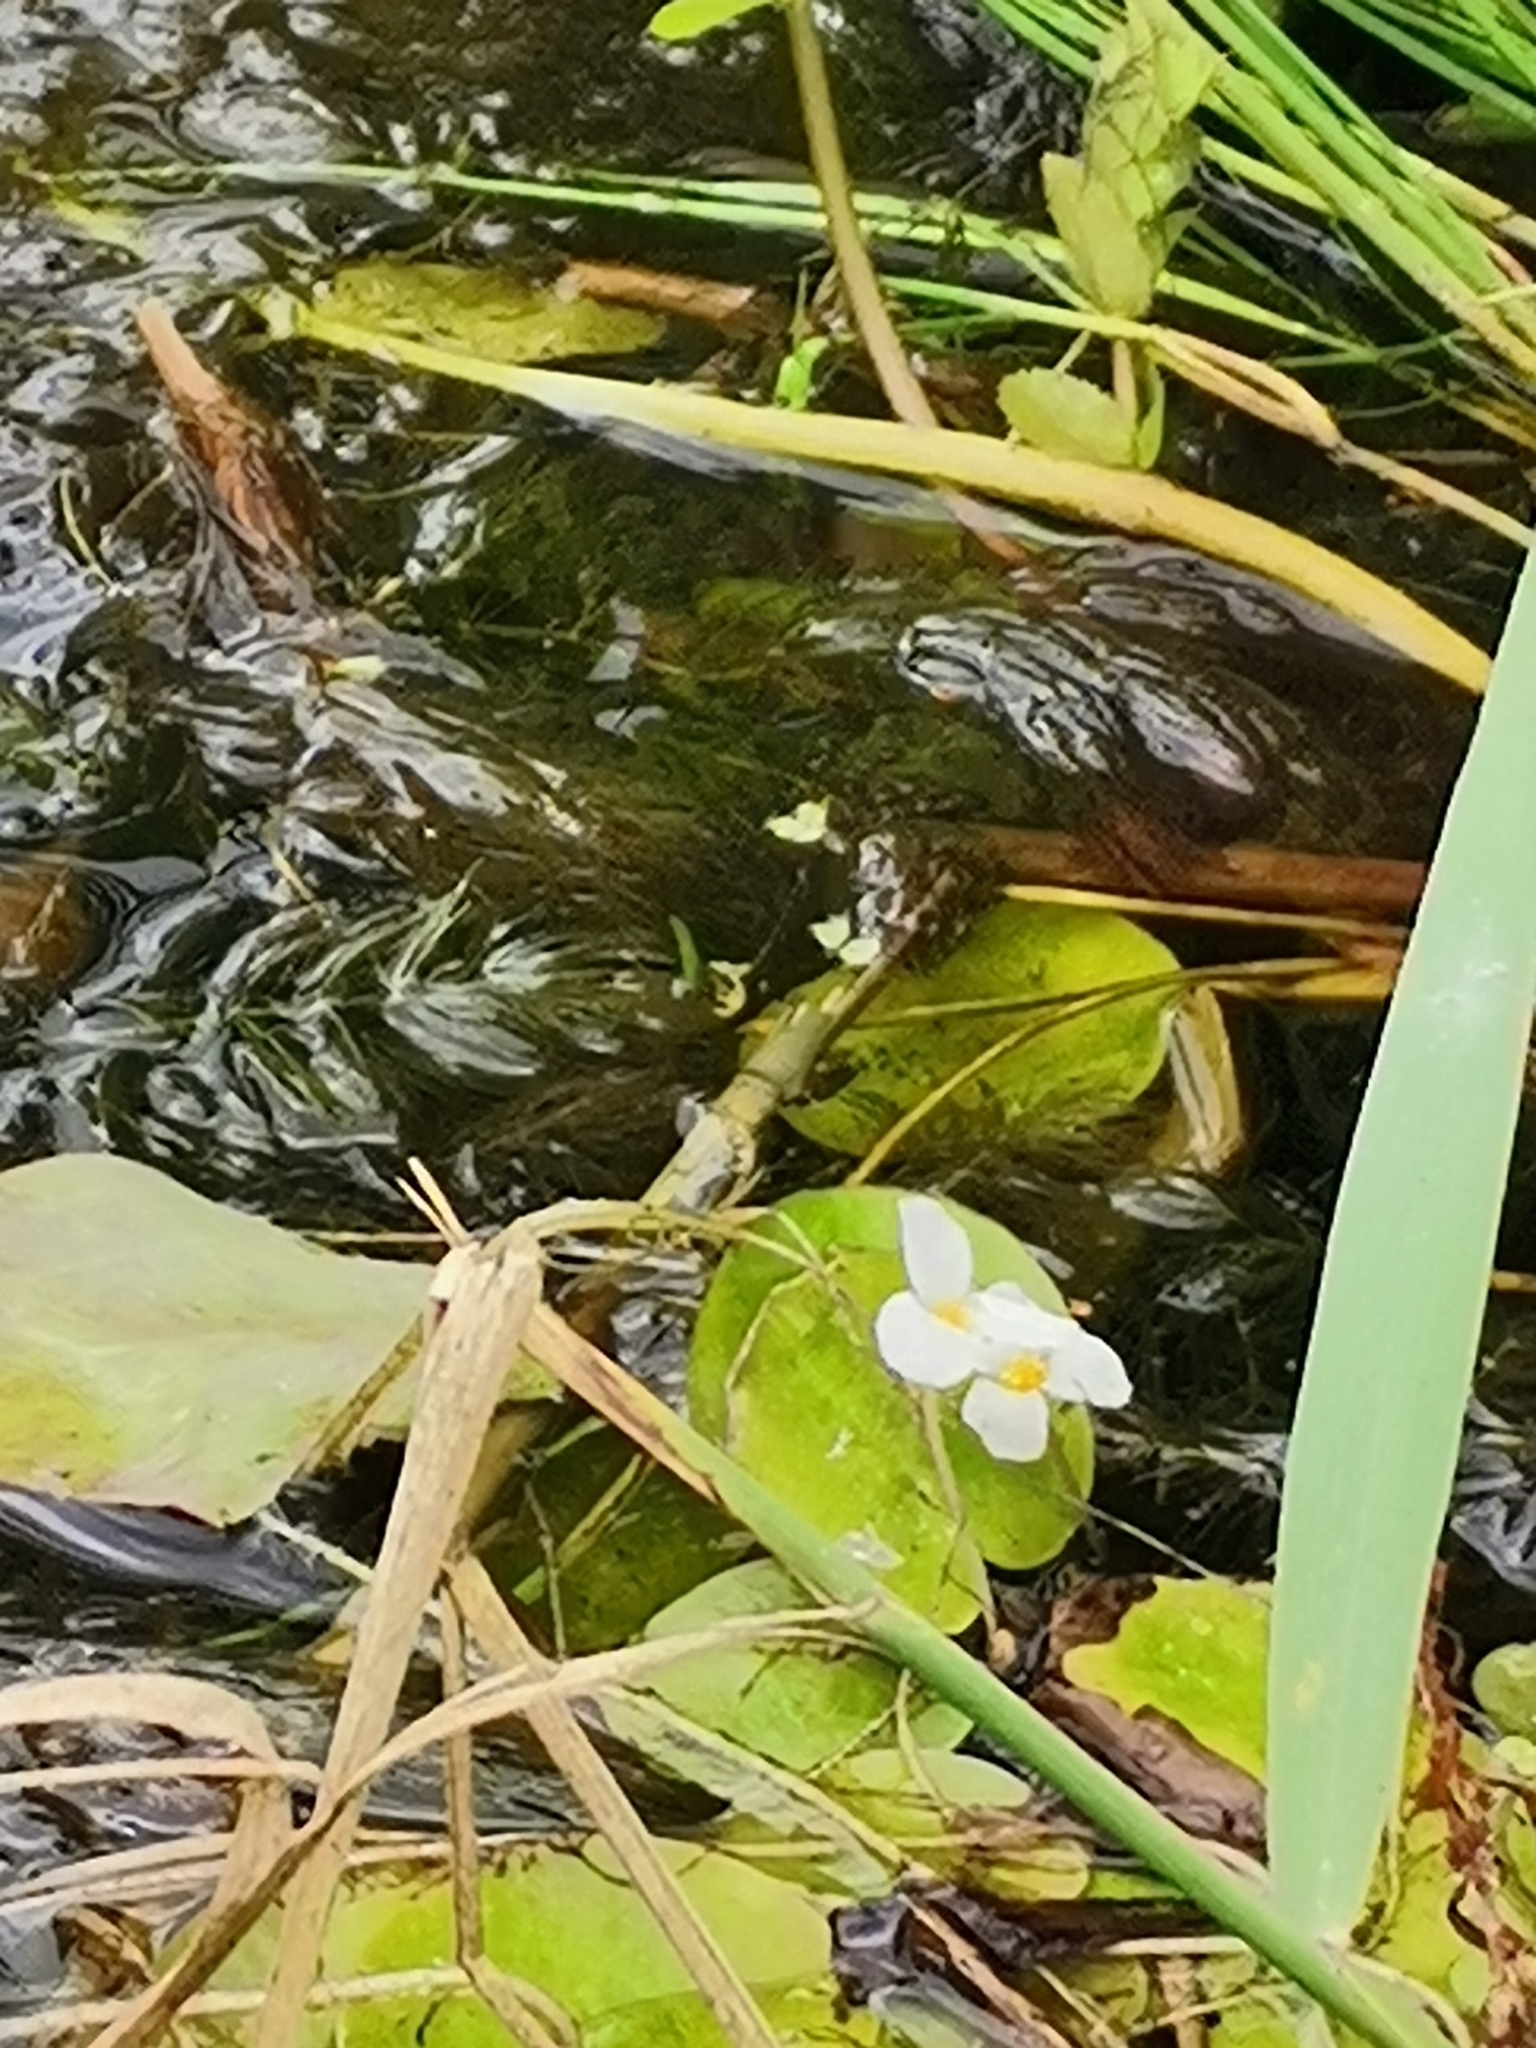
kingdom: Plantae
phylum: Tracheophyta
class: Liliopsida
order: Alismatales
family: Hydrocharitaceae
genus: Hydrocharis
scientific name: Hydrocharis morsus-ranae
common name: Frogbit
